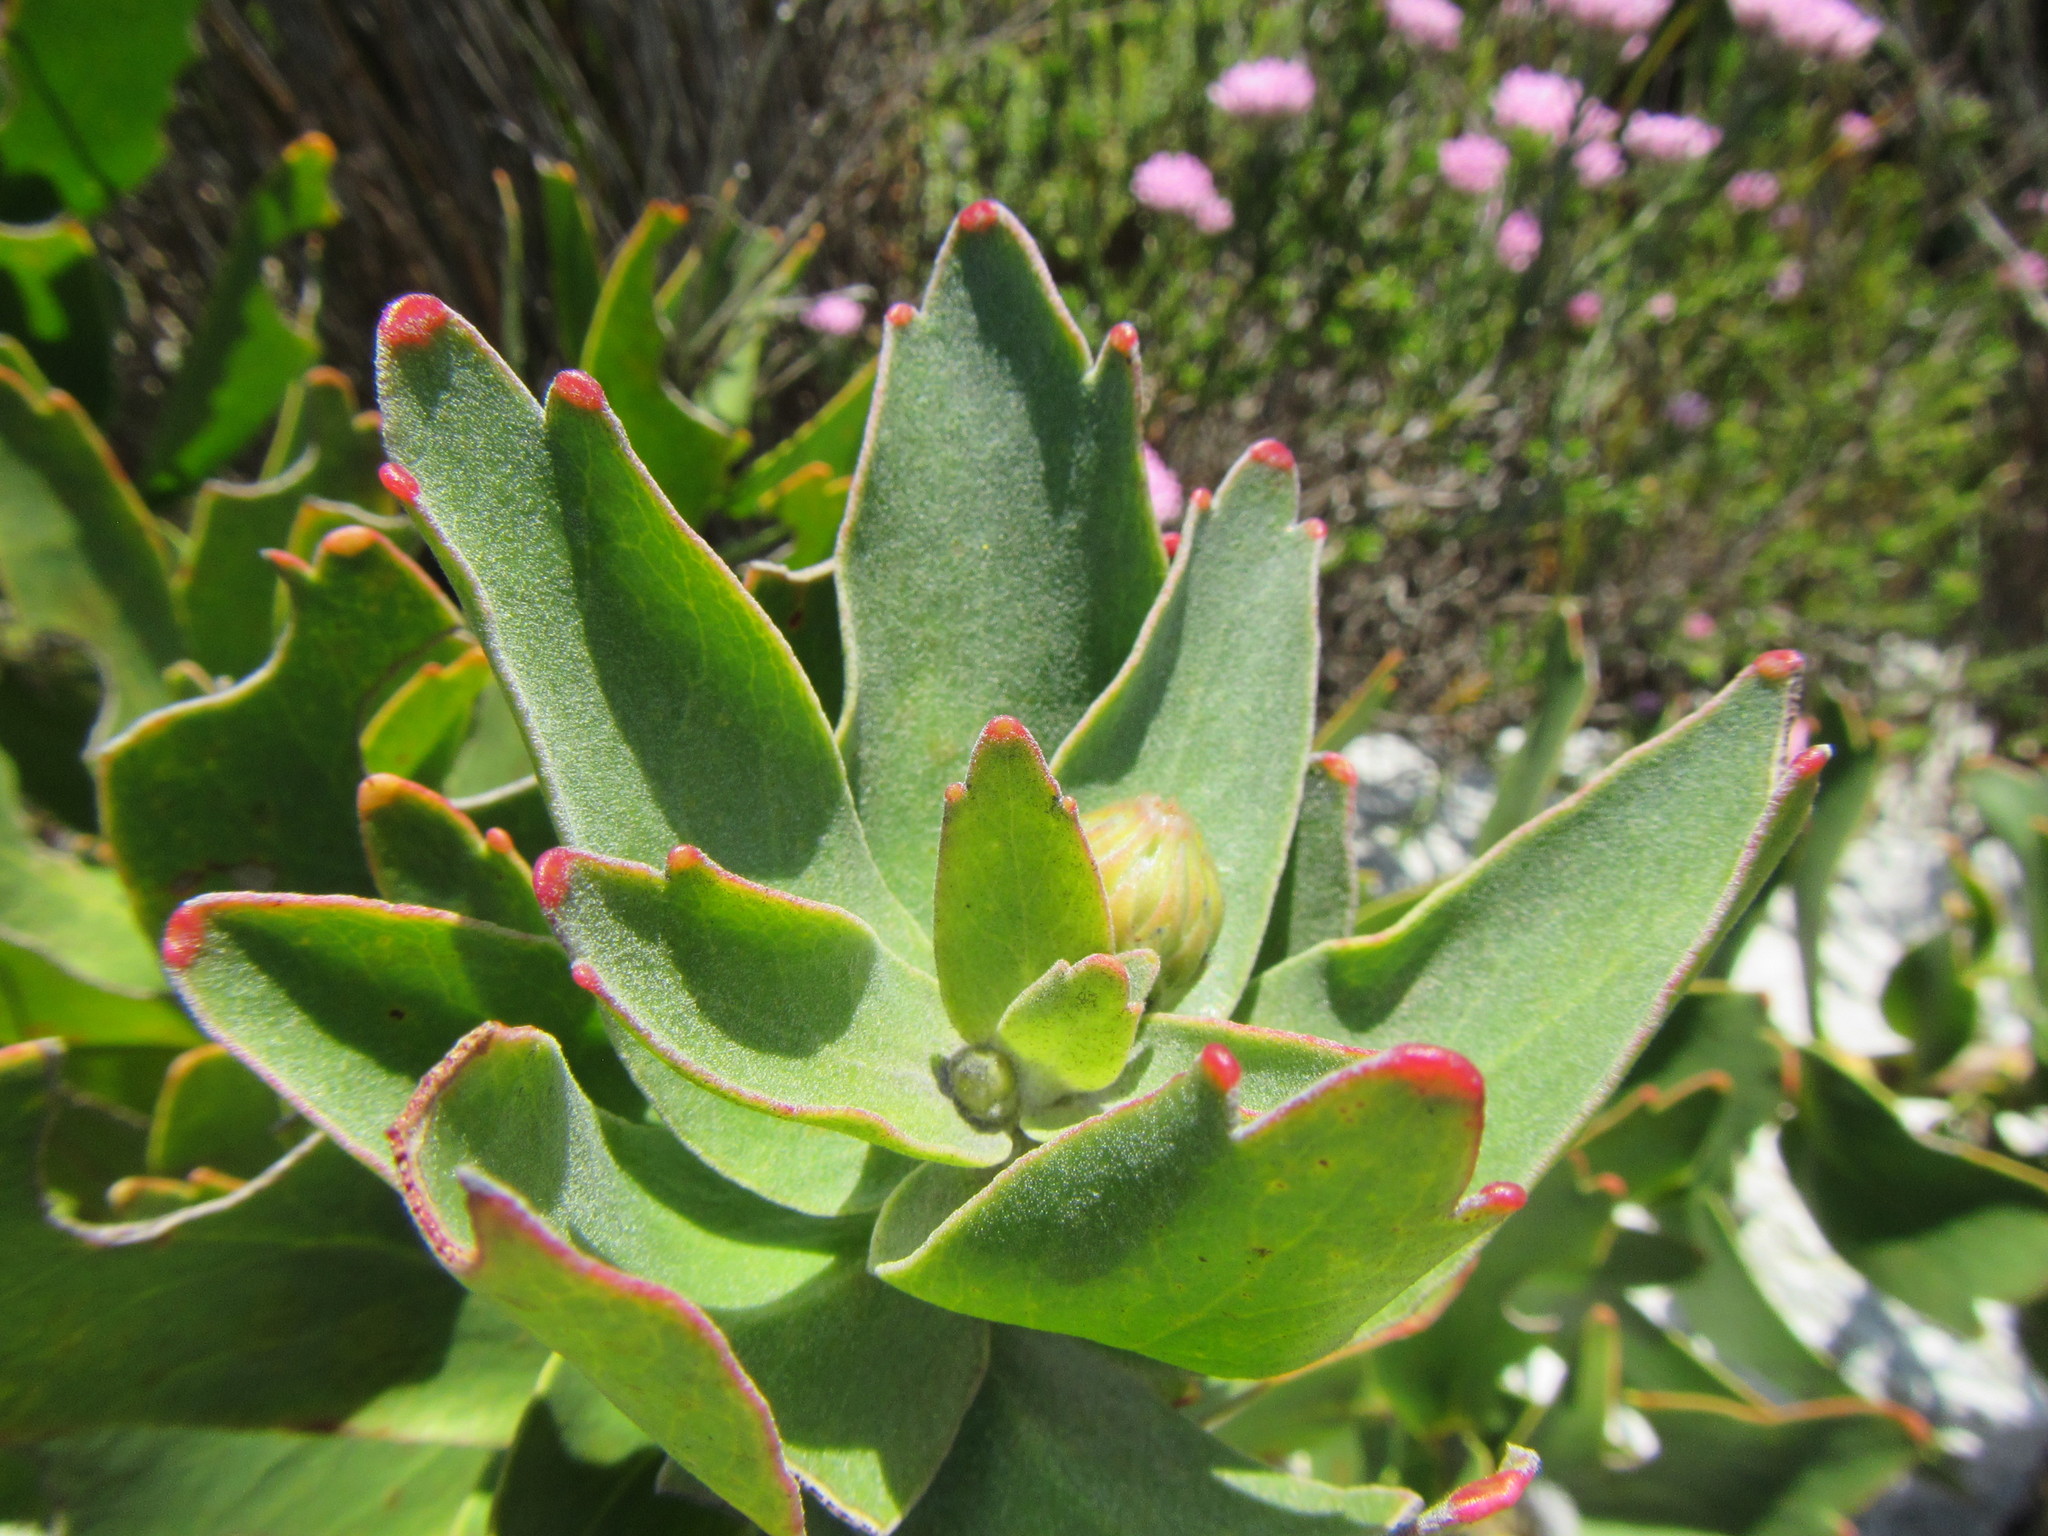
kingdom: Plantae
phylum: Tracheophyta
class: Magnoliopsida
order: Proteales
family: Proteaceae
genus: Leucospermum
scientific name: Leucospermum cordifolium
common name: Red pincushion-protea
